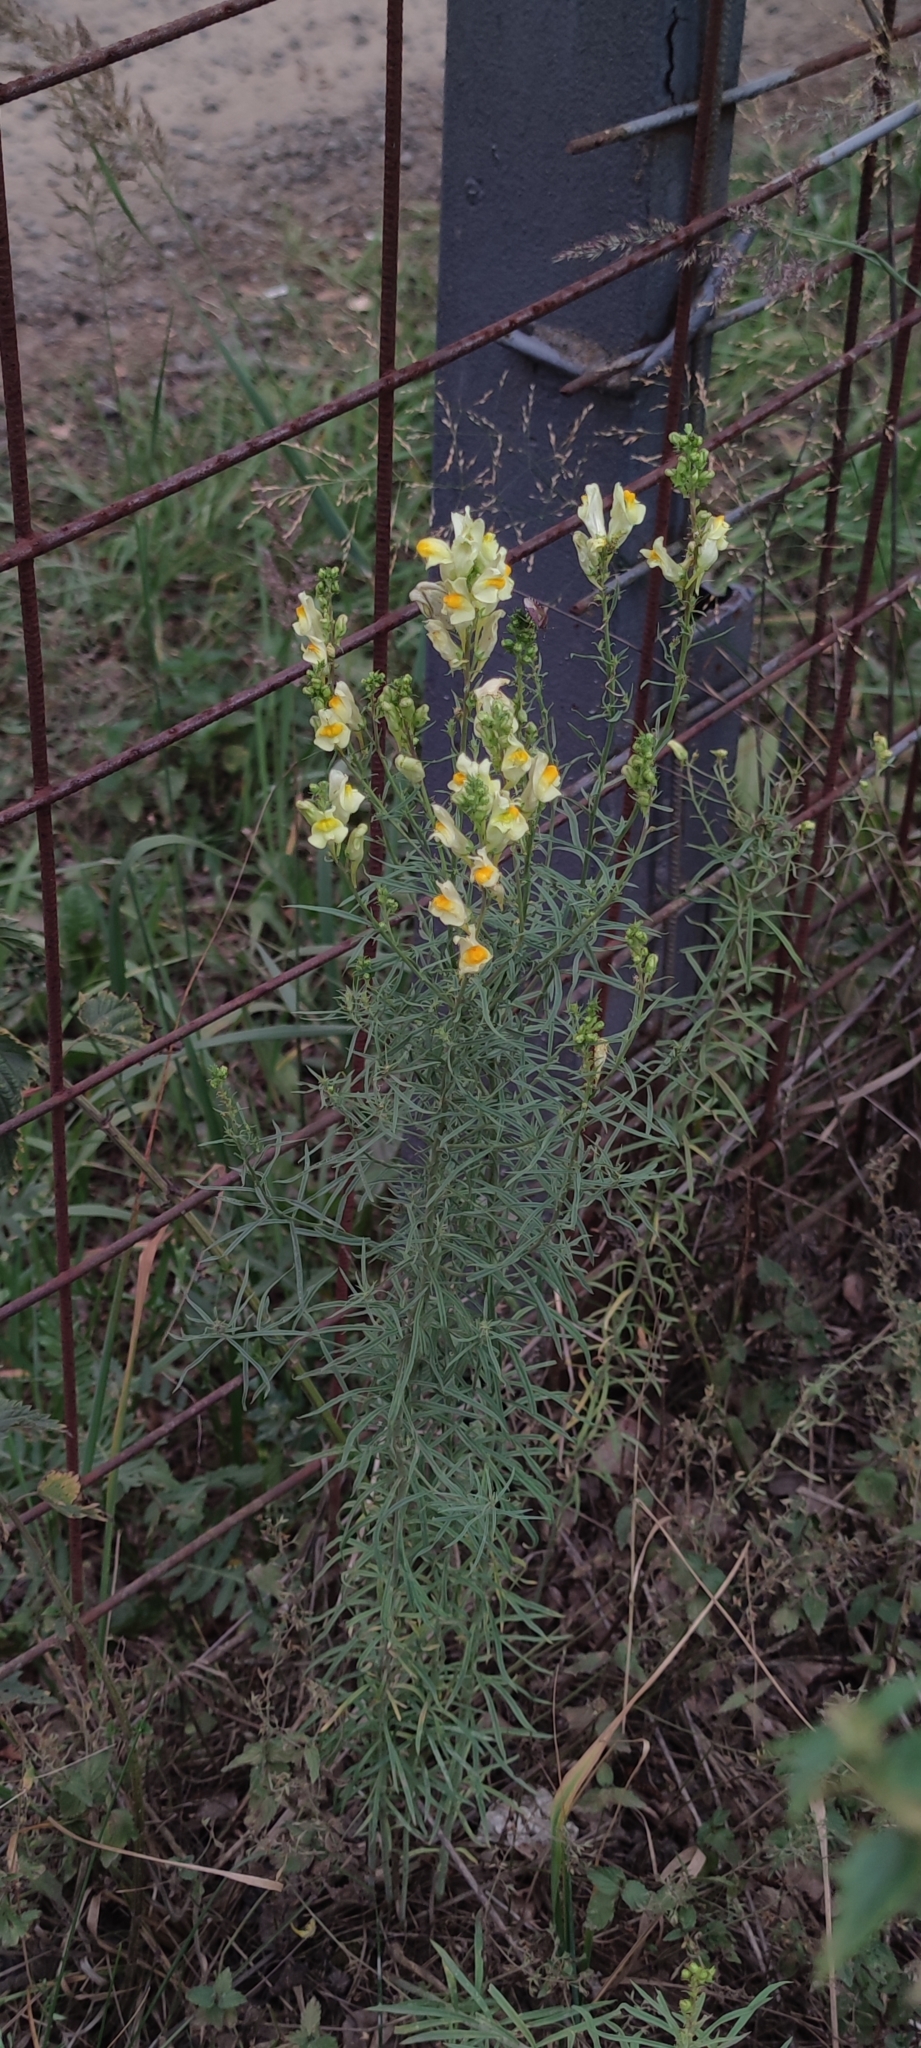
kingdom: Plantae
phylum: Tracheophyta
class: Magnoliopsida
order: Lamiales
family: Plantaginaceae
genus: Linaria
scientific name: Linaria vulgaris
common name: Butter and eggs
